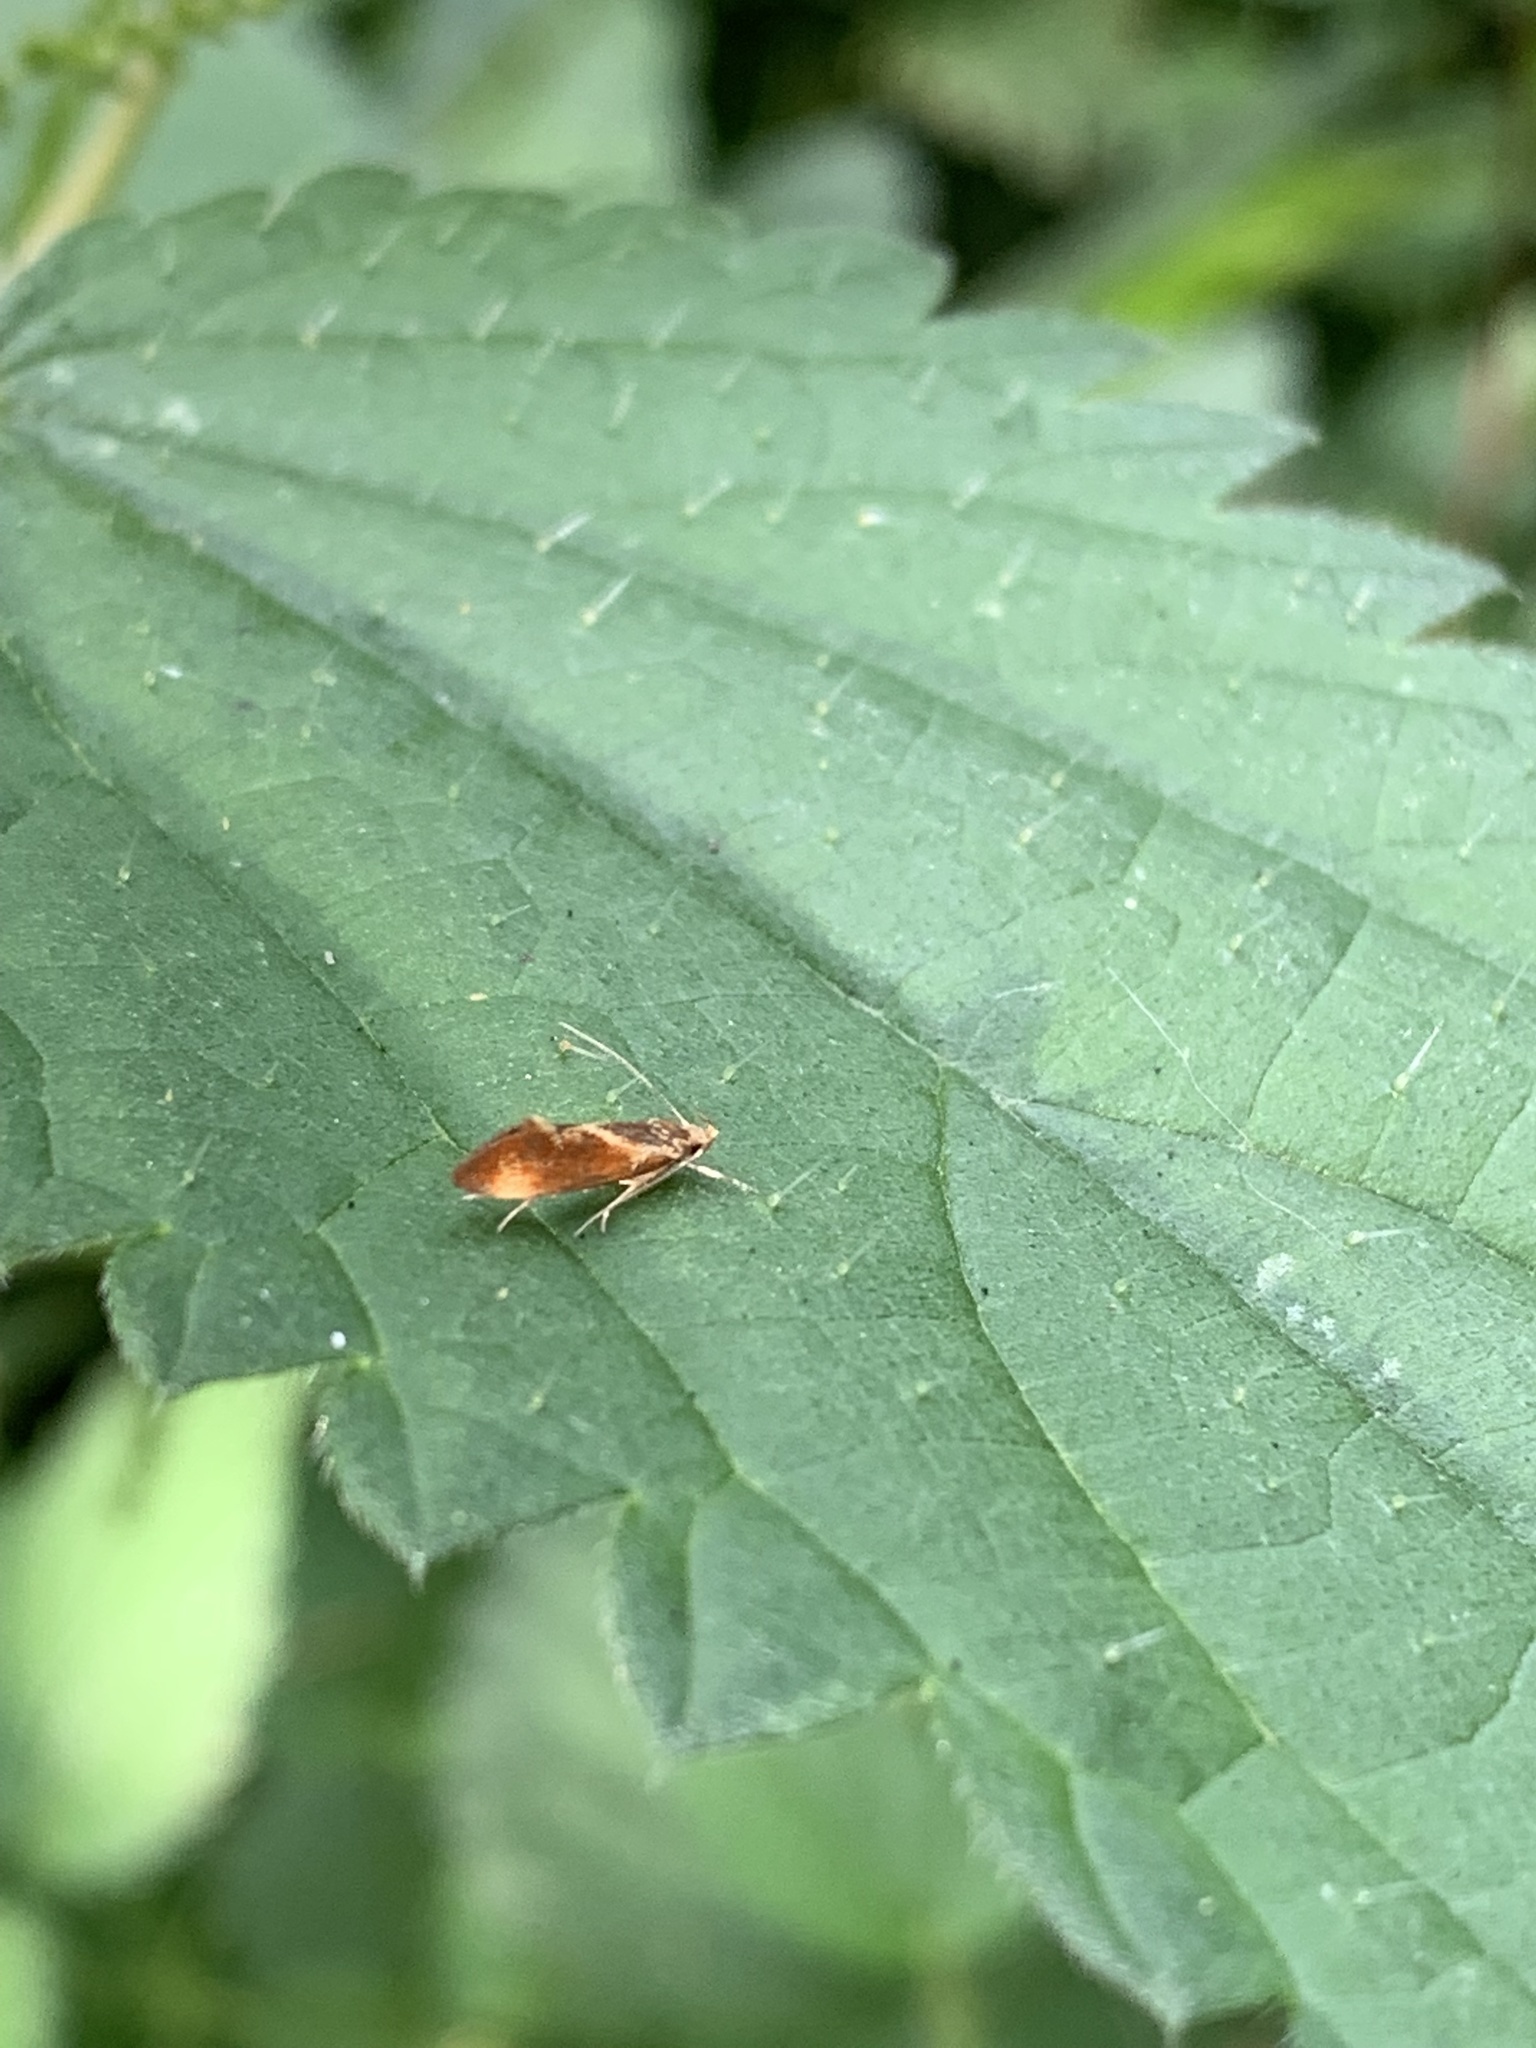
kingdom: Animalia
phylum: Arthropoda
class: Insecta
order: Lepidoptera
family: Oecophoridae
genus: Borkhausenia
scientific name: Borkhausenia italica
